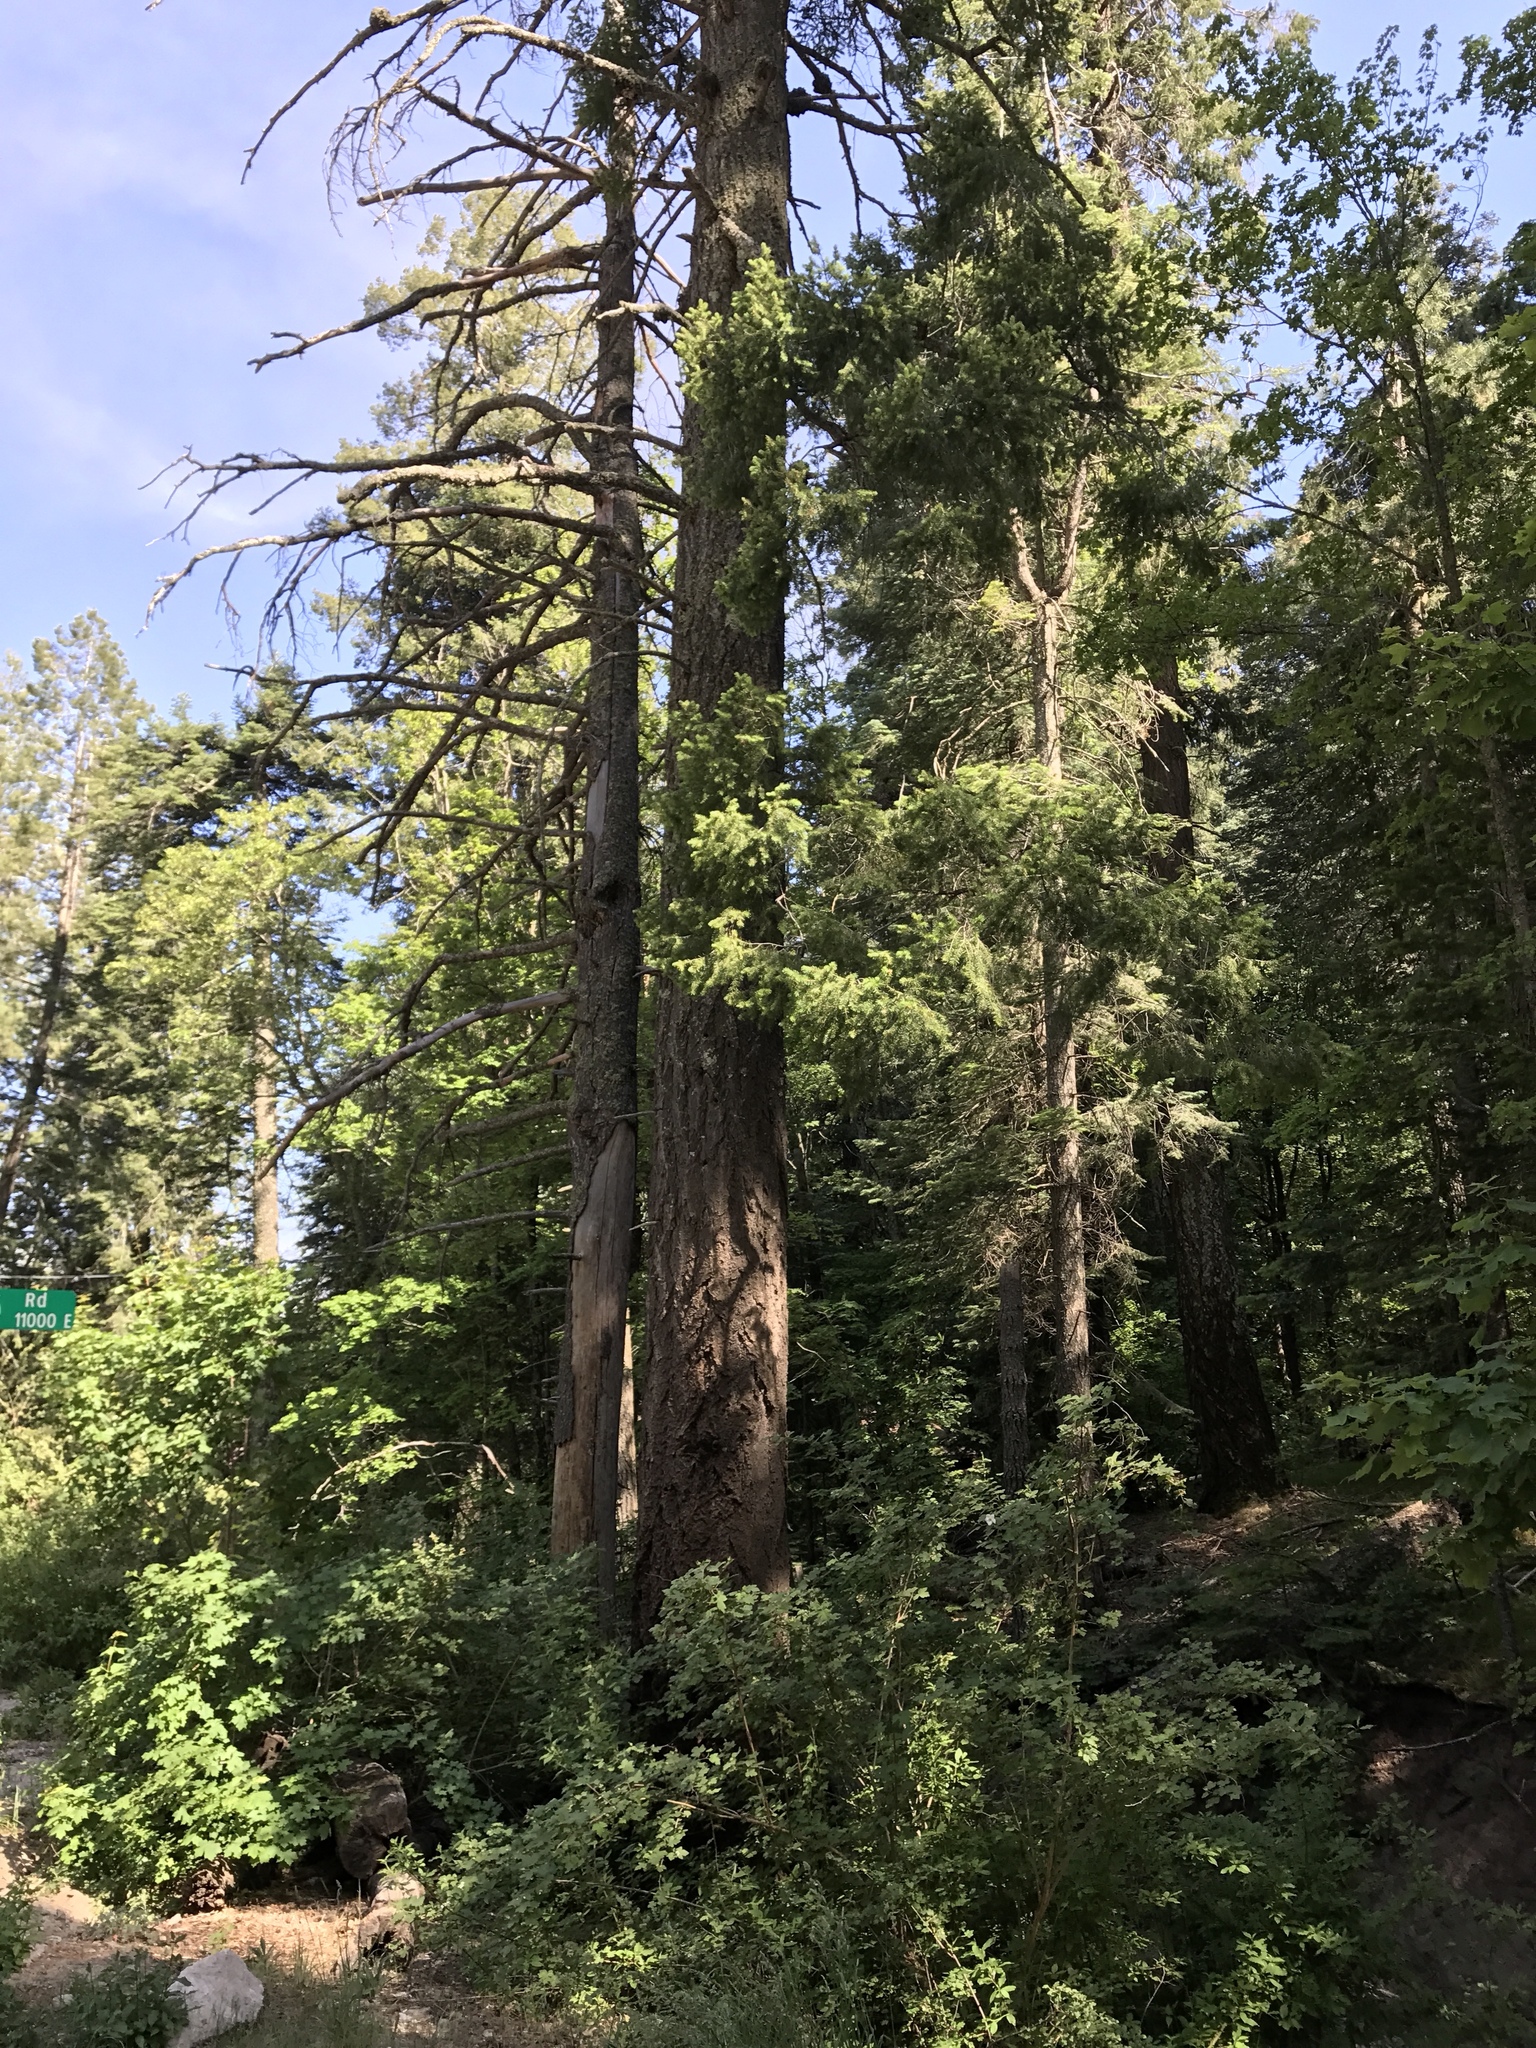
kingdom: Plantae
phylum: Tracheophyta
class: Pinopsida
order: Pinales
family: Pinaceae
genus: Pseudotsuga
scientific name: Pseudotsuga menziesii
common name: Douglas fir
